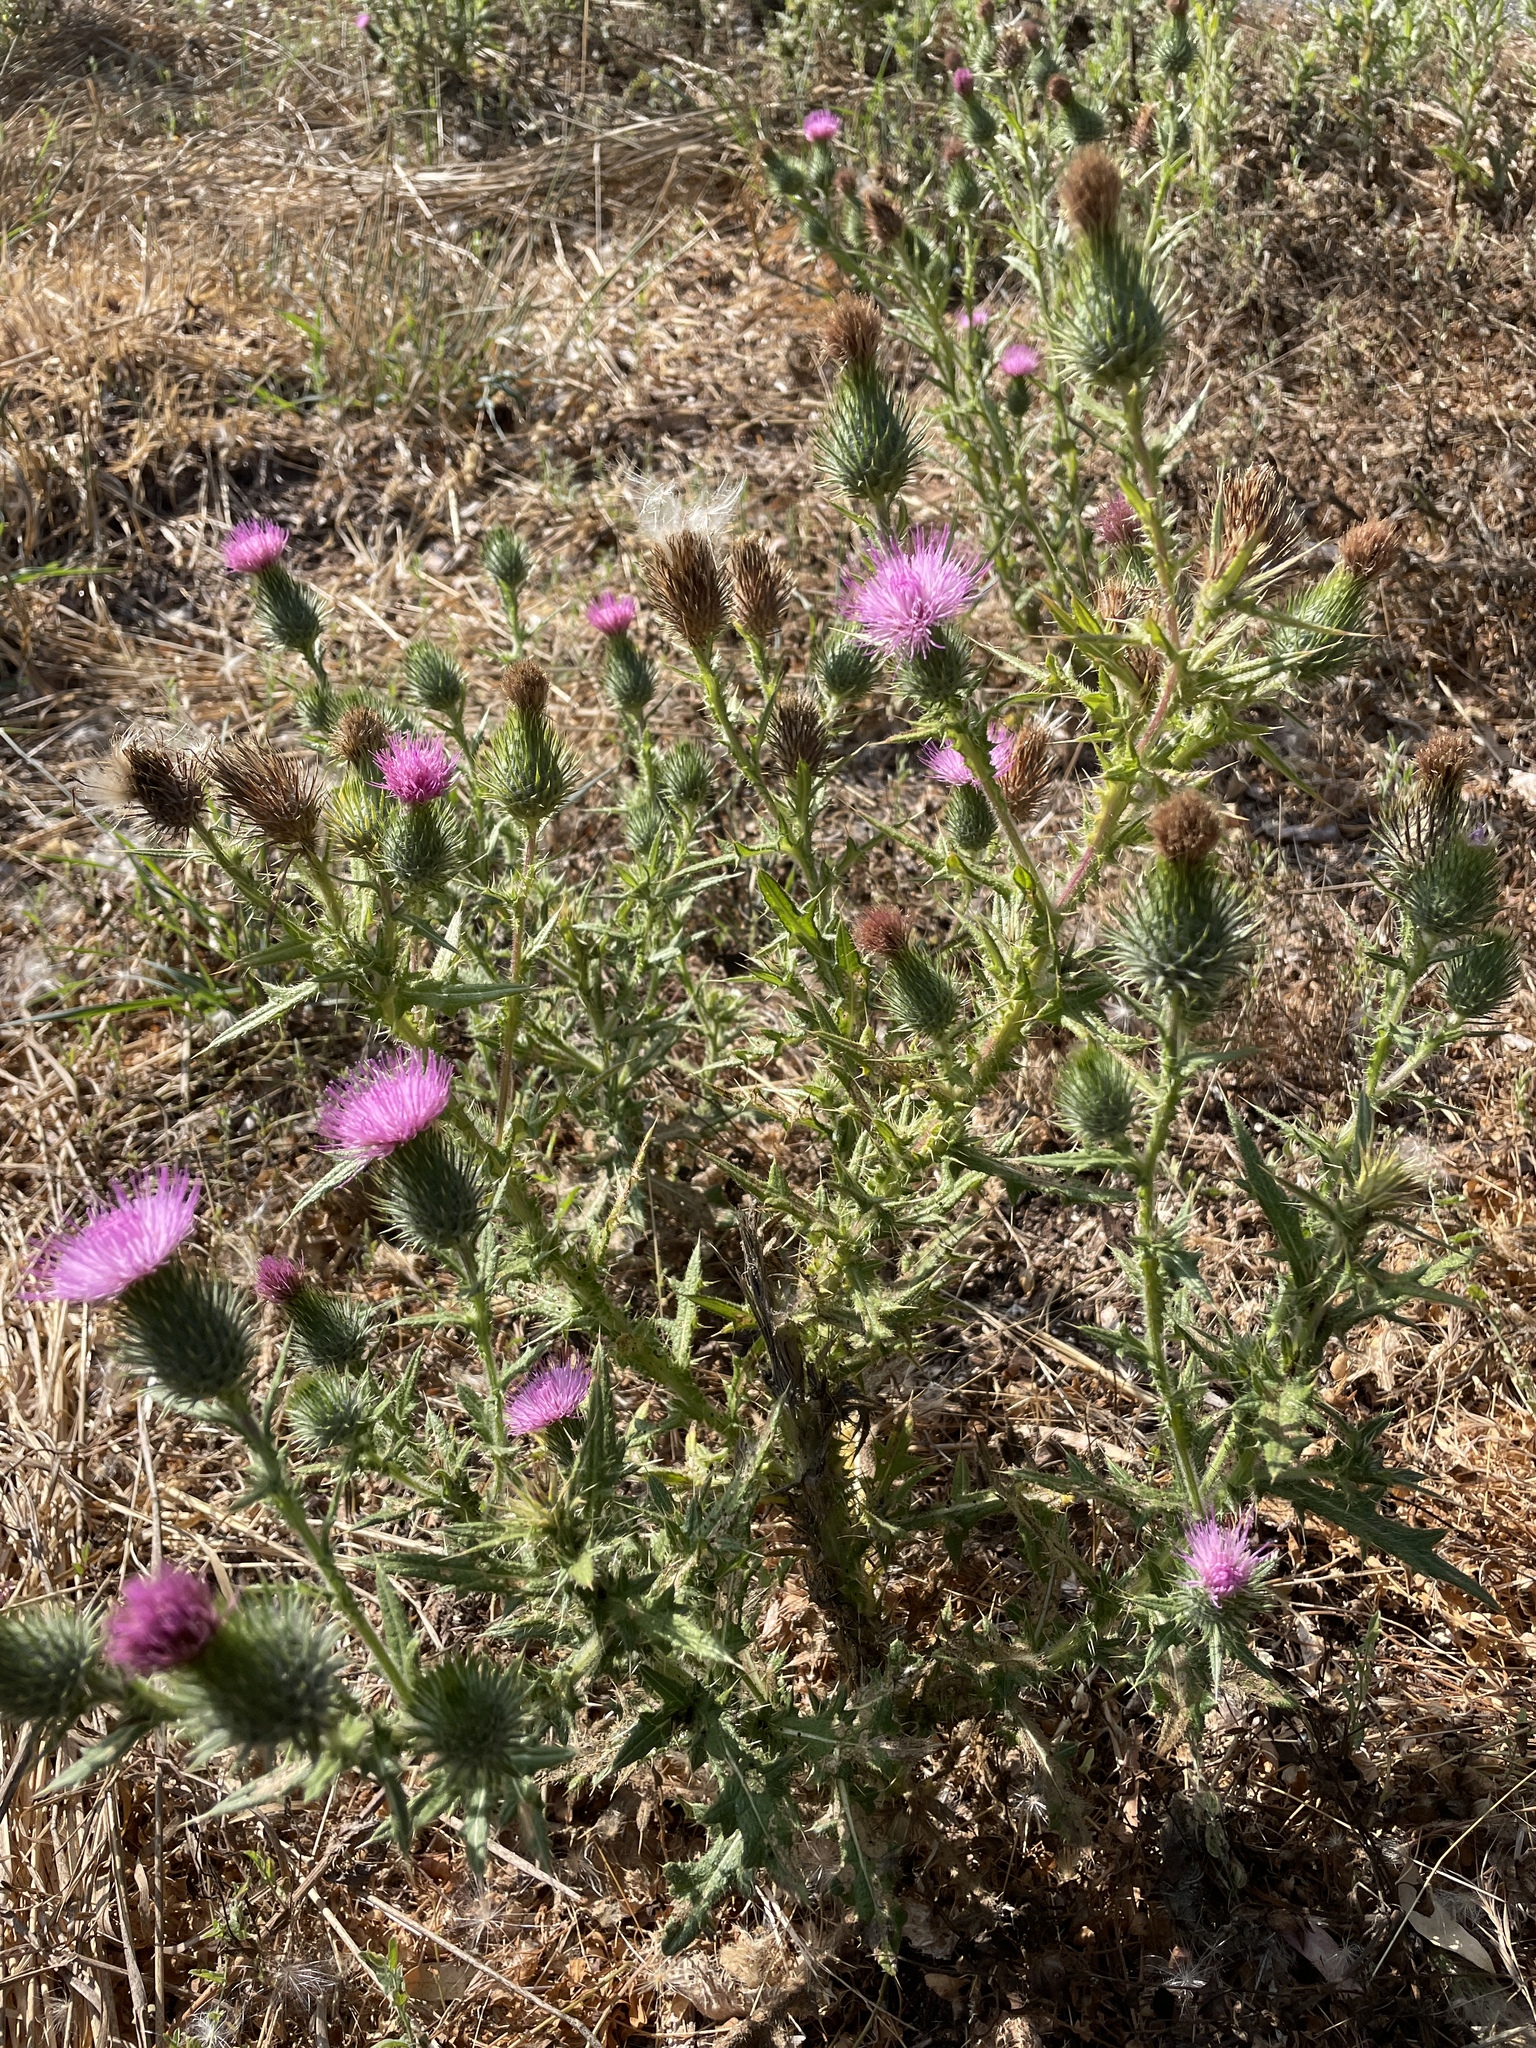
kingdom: Plantae
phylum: Tracheophyta
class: Magnoliopsida
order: Asterales
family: Asteraceae
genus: Cirsium
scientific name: Cirsium vulgare
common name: Bull thistle
